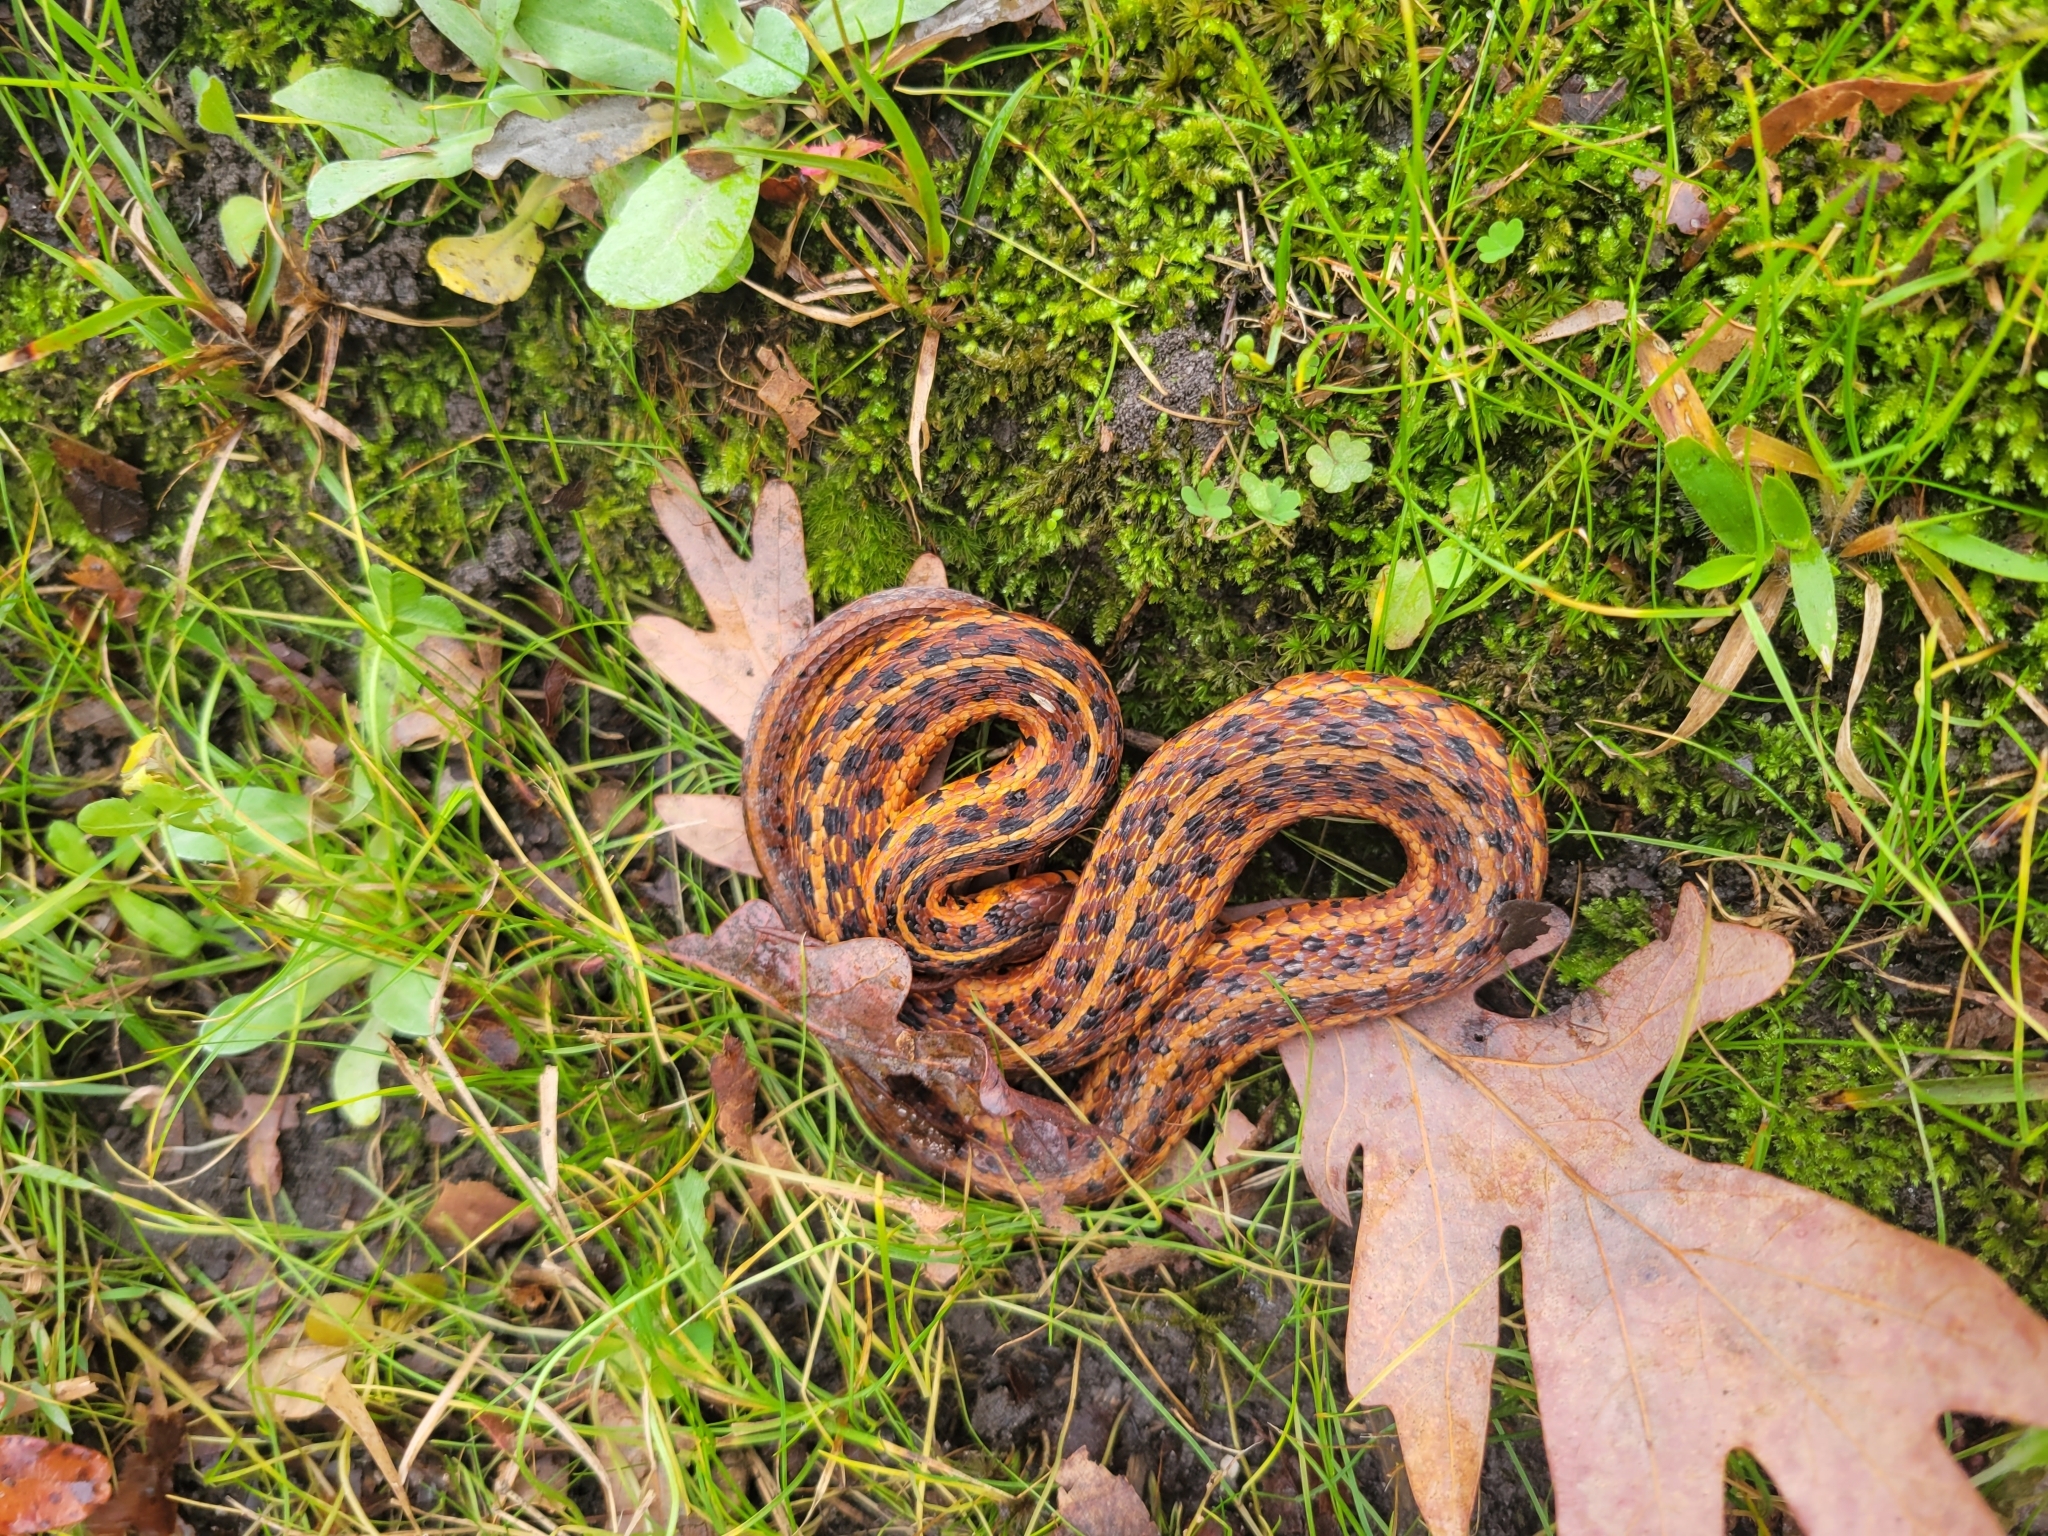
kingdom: Animalia
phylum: Chordata
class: Squamata
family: Colubridae
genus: Thamnophis
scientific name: Thamnophis sirtalis
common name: Common garter snake
